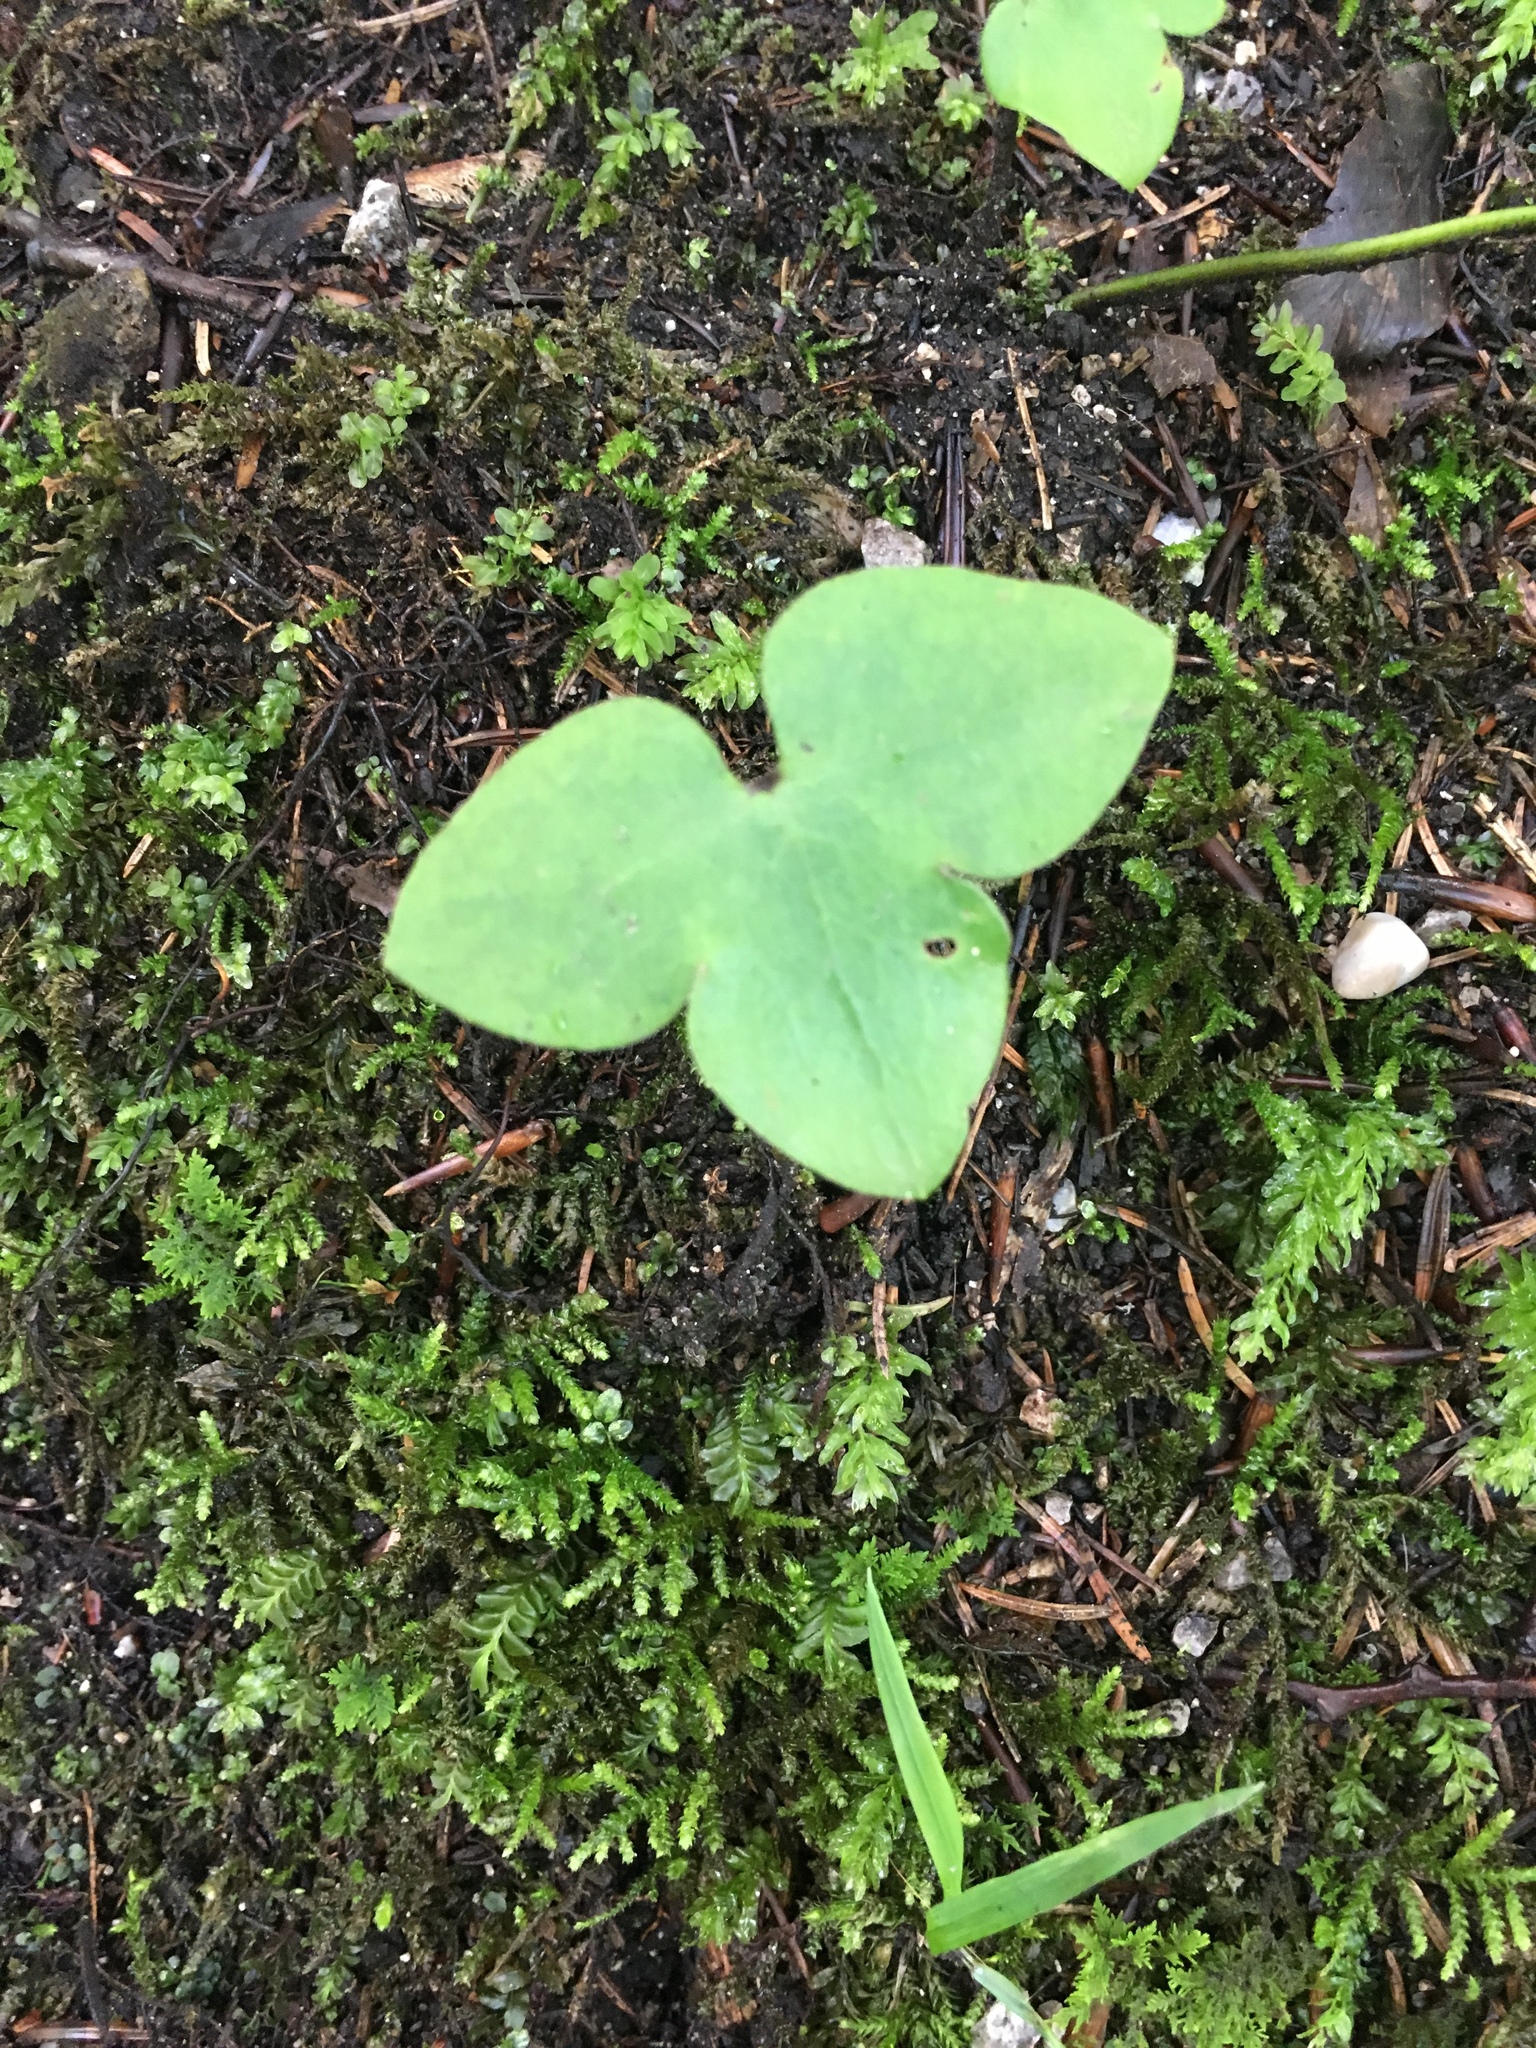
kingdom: Plantae
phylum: Tracheophyta
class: Magnoliopsida
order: Ranunculales
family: Ranunculaceae
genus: Hepatica
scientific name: Hepatica nobilis
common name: Liverleaf
